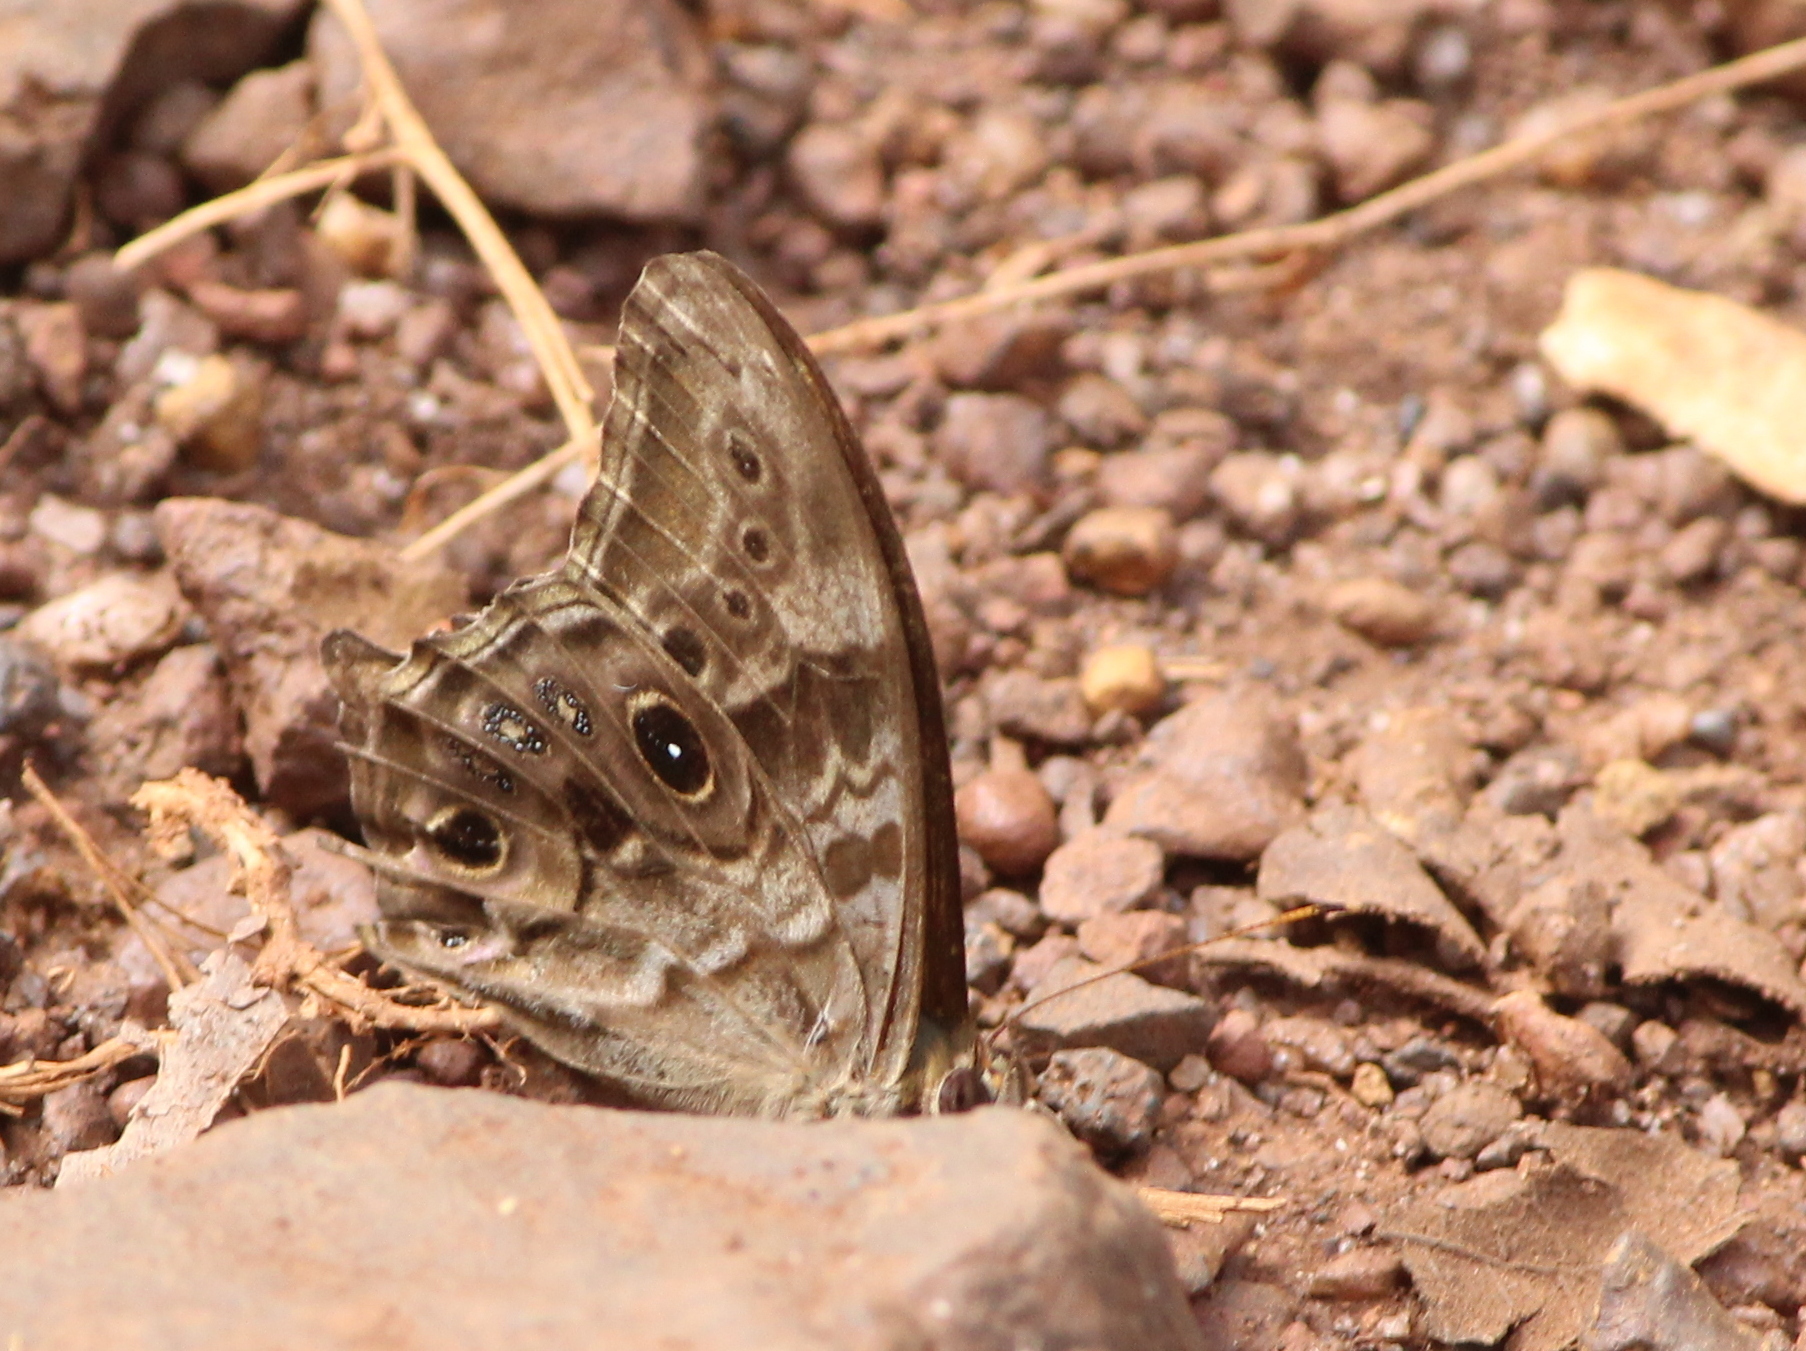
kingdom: Animalia
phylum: Arthropoda
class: Insecta
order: Lepidoptera
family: Nymphalidae
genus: Lethe
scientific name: Lethe drypetis
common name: Tamil treebrown
